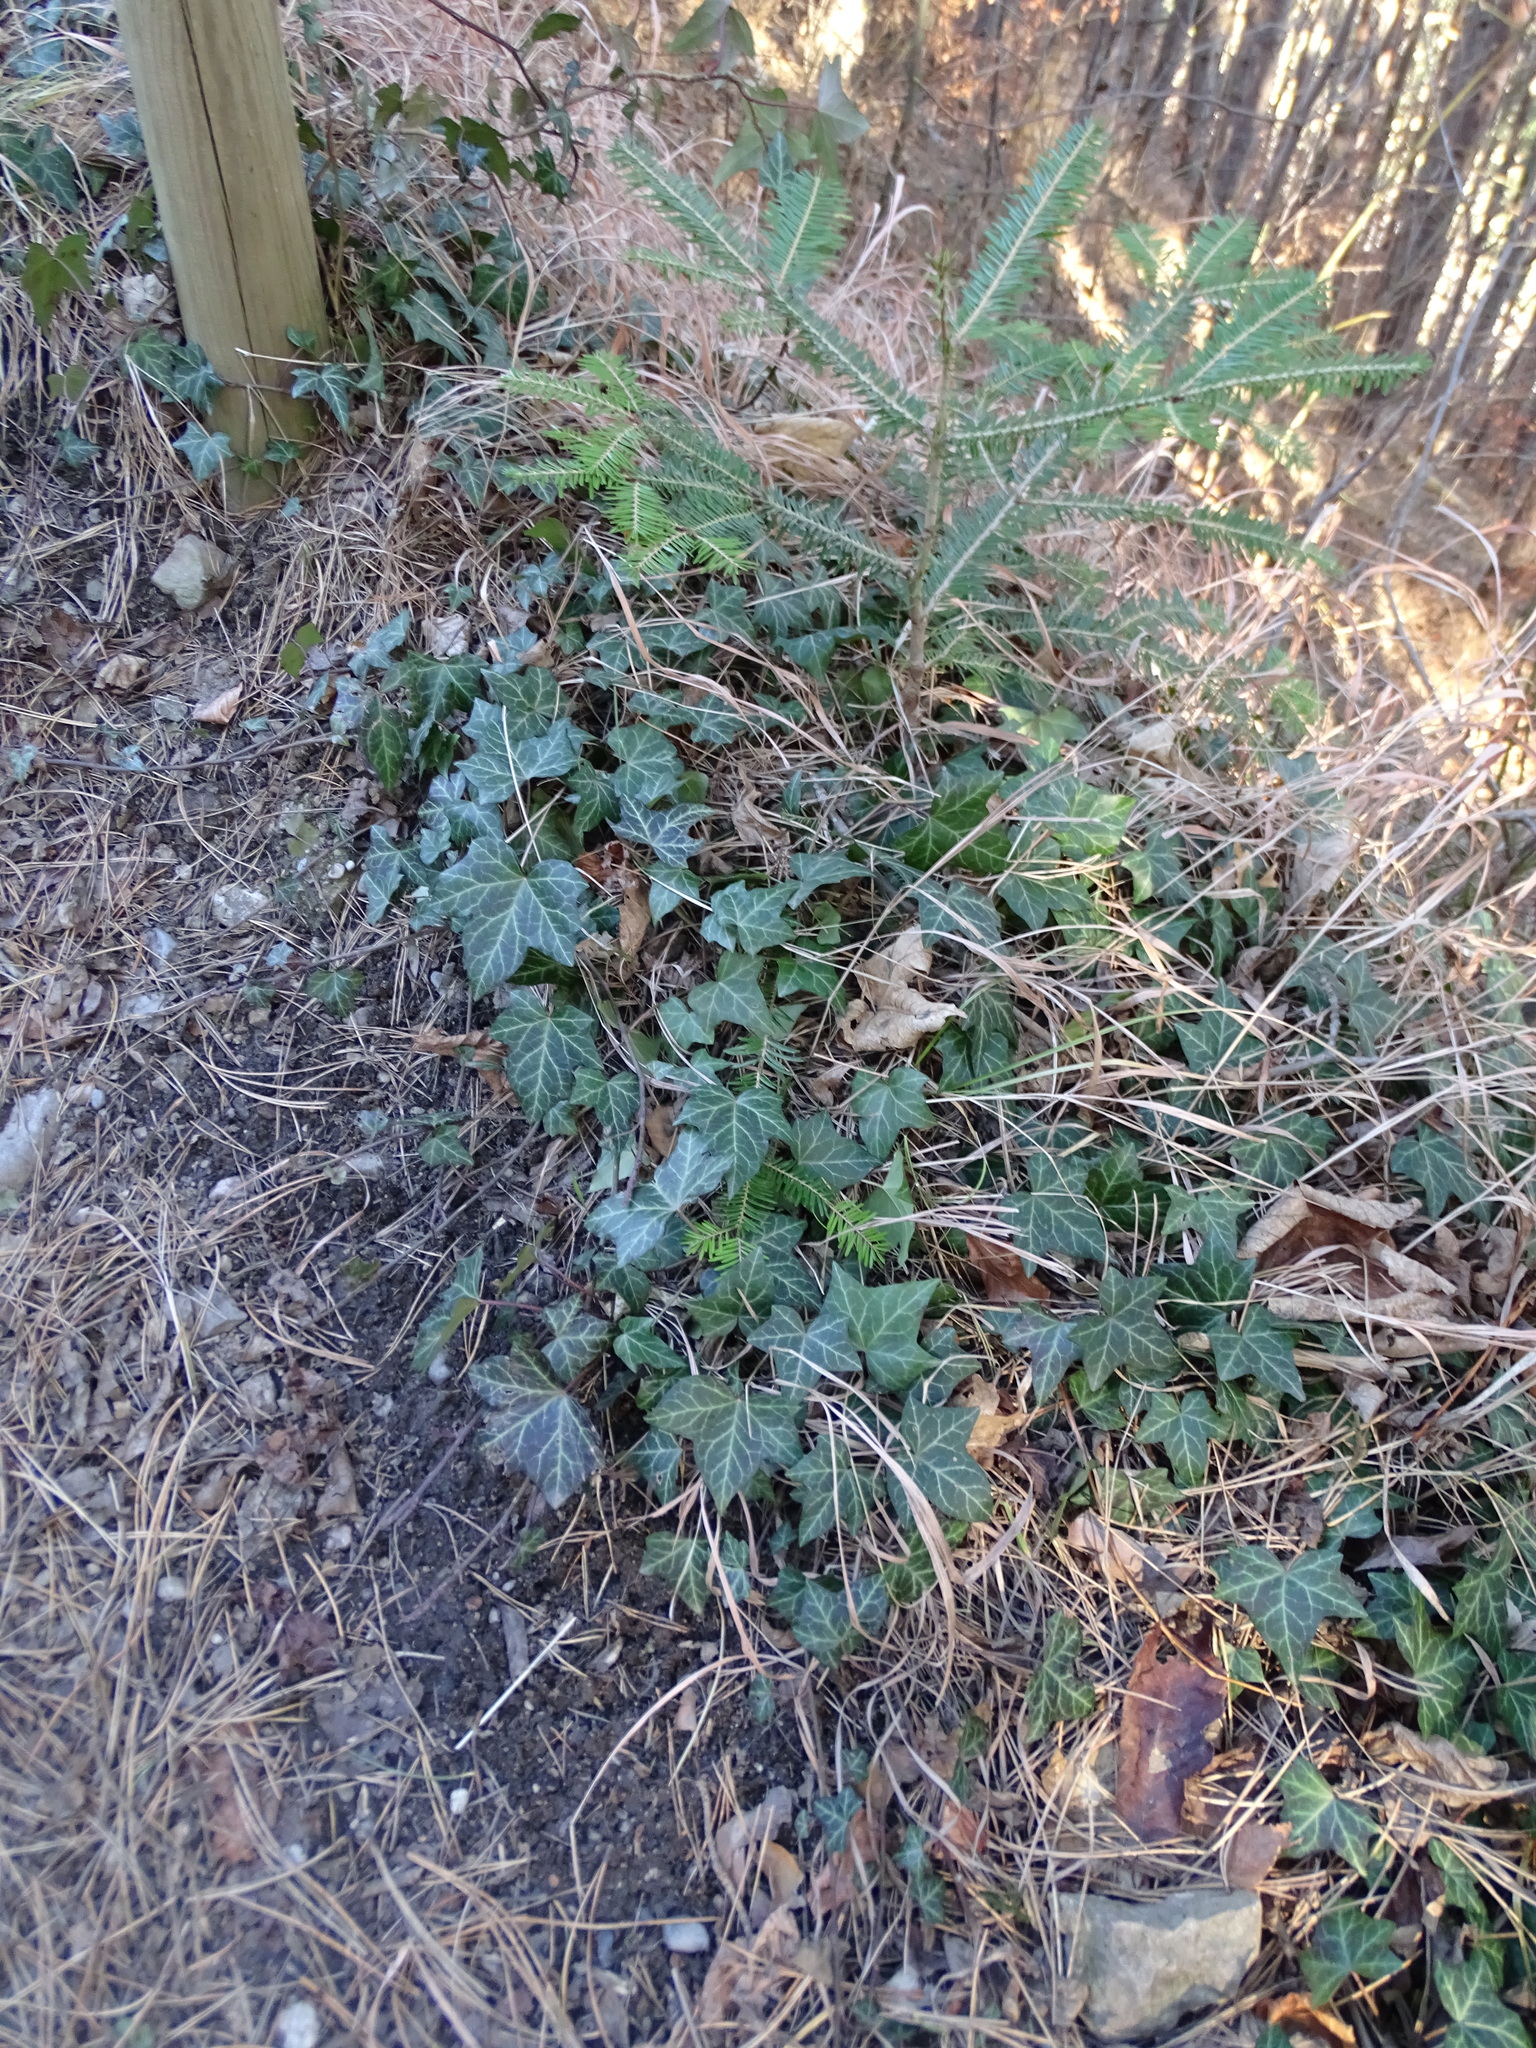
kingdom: Plantae
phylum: Tracheophyta
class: Magnoliopsida
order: Apiales
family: Araliaceae
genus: Hedera
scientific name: Hedera helix
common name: Ivy
